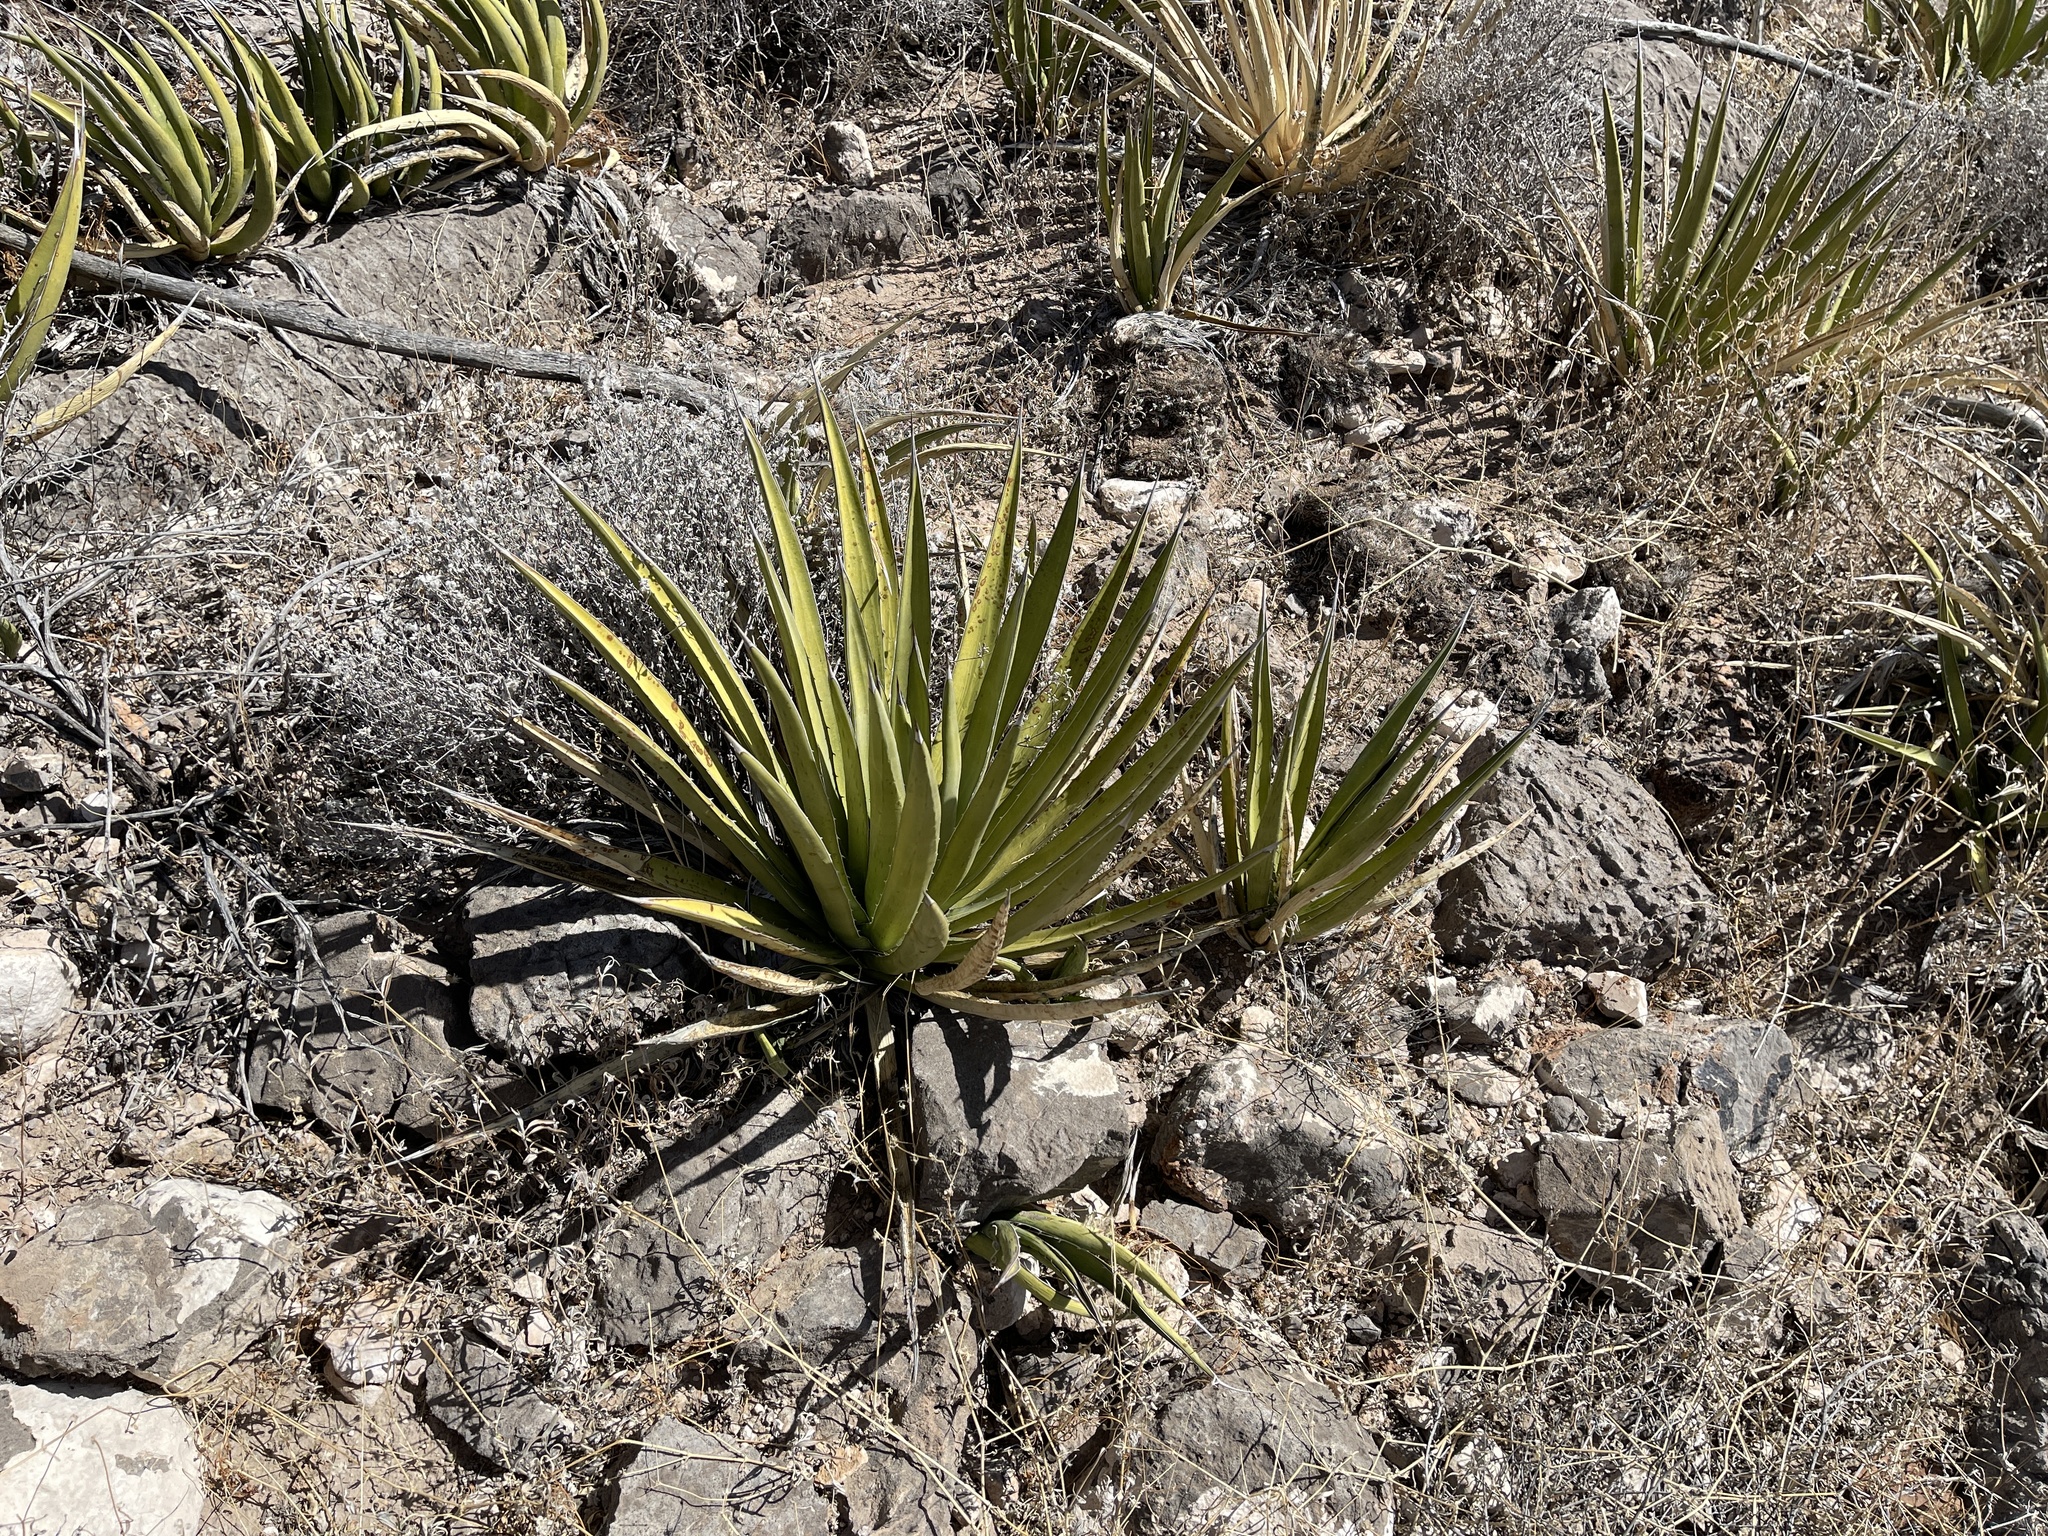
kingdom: Plantae
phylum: Tracheophyta
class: Liliopsida
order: Asparagales
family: Asparagaceae
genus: Agave
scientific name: Agave lechuguilla
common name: Lecheguilla agave
